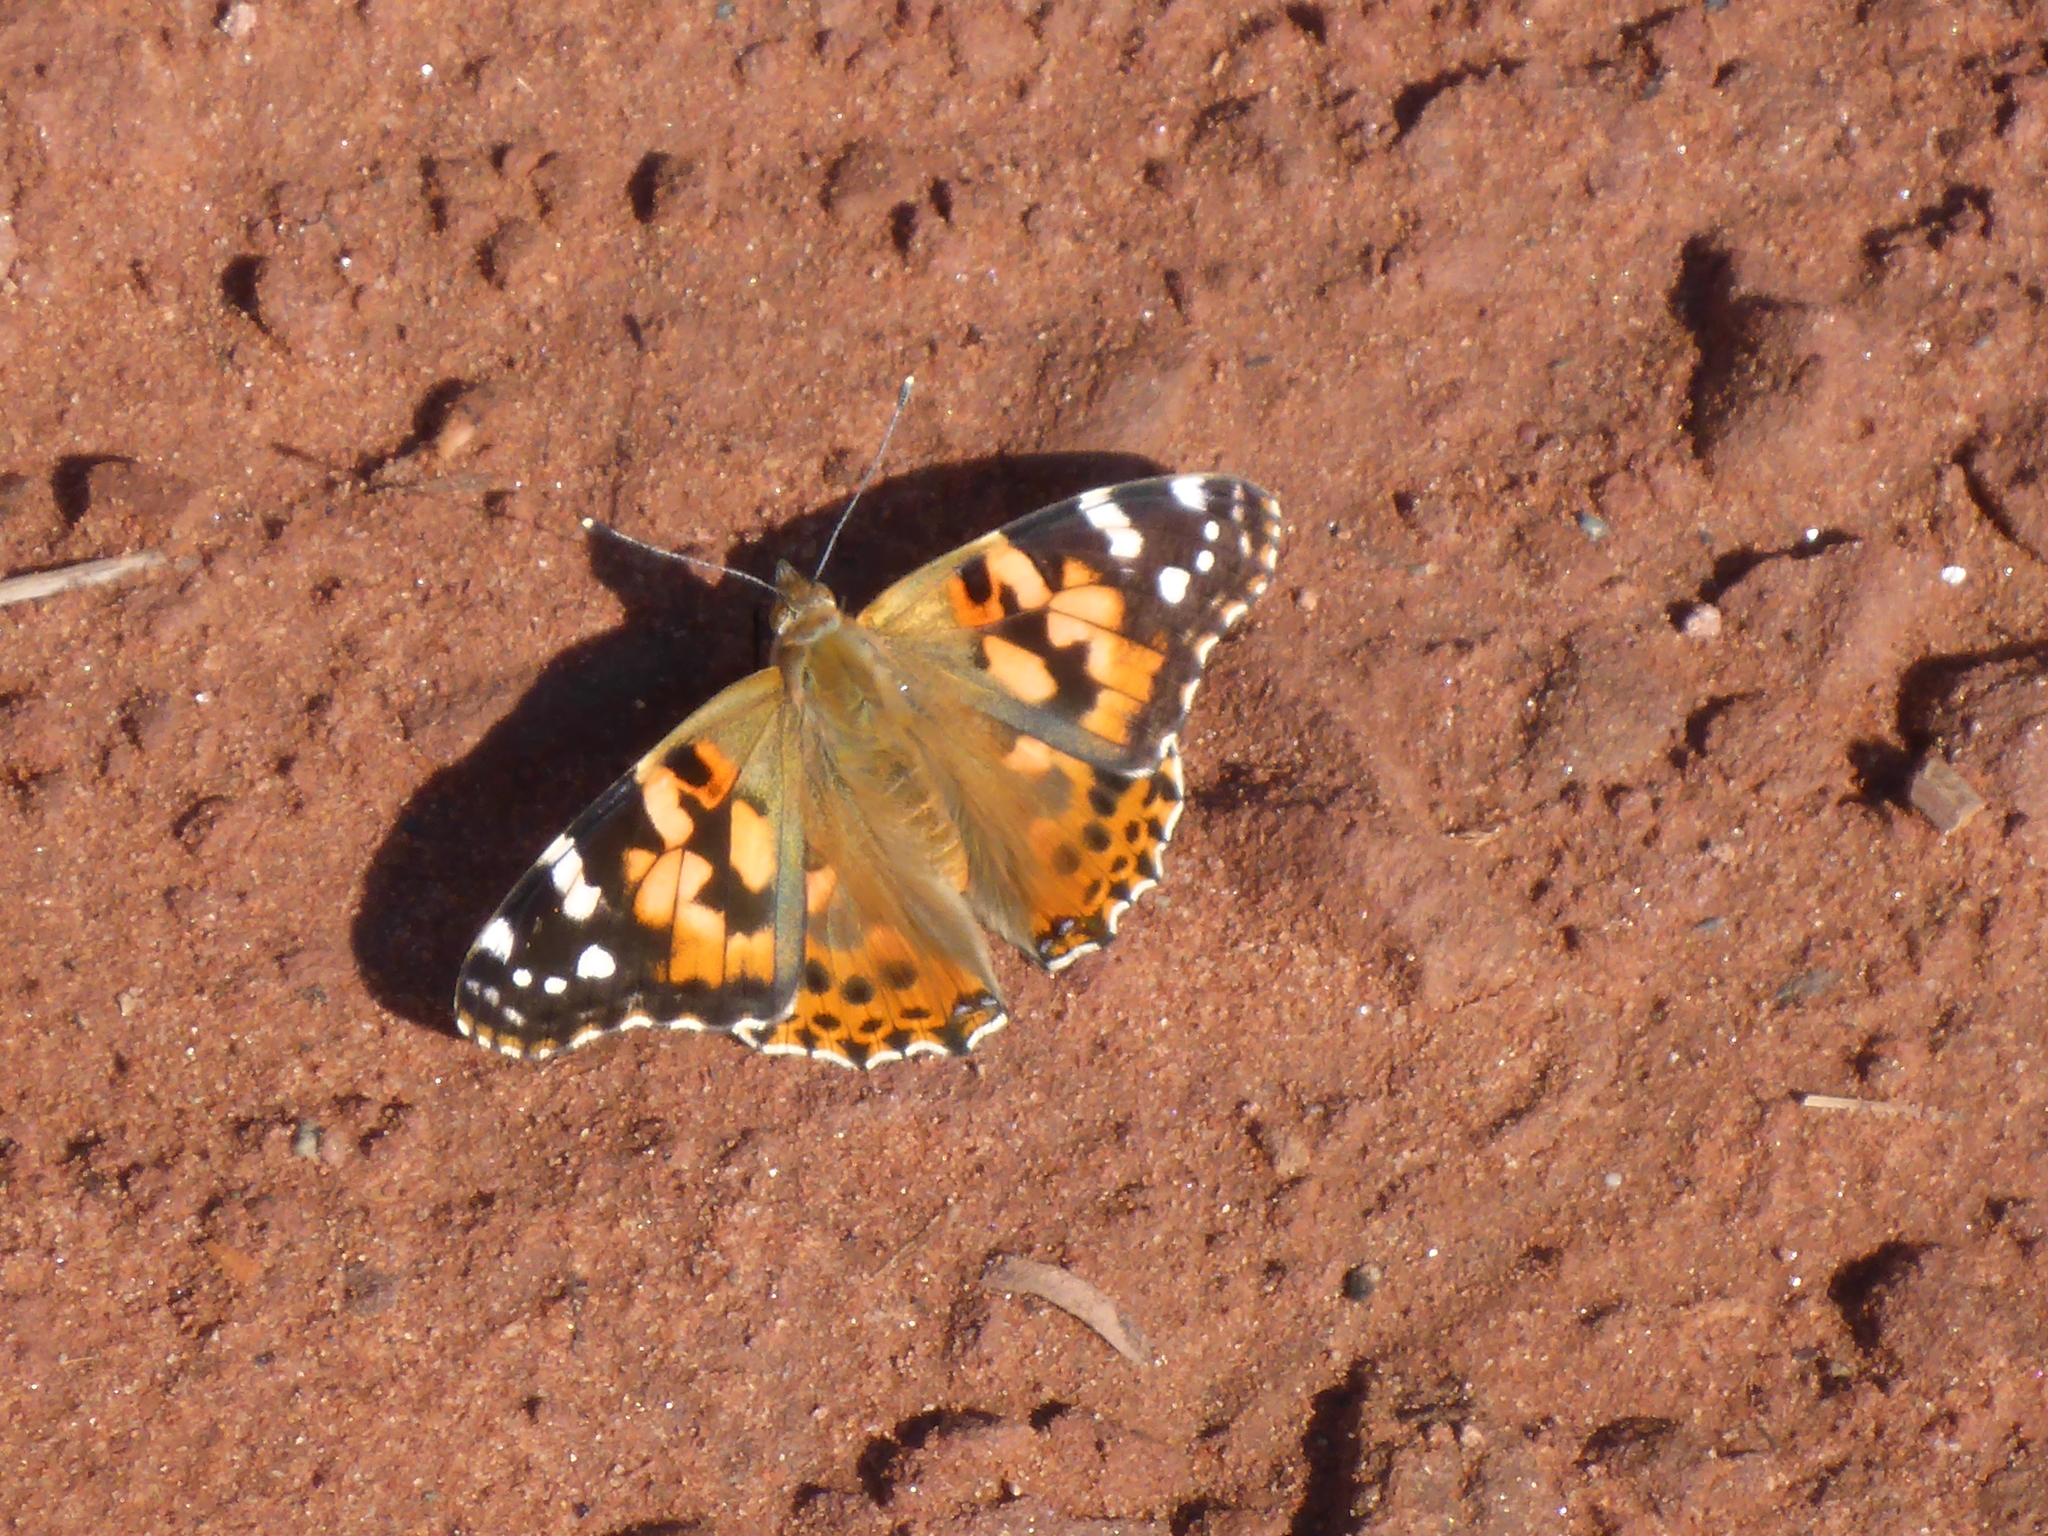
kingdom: Animalia
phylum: Arthropoda
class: Insecta
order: Lepidoptera
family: Nymphalidae
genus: Vanessa
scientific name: Vanessa cardui
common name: Painted lady
